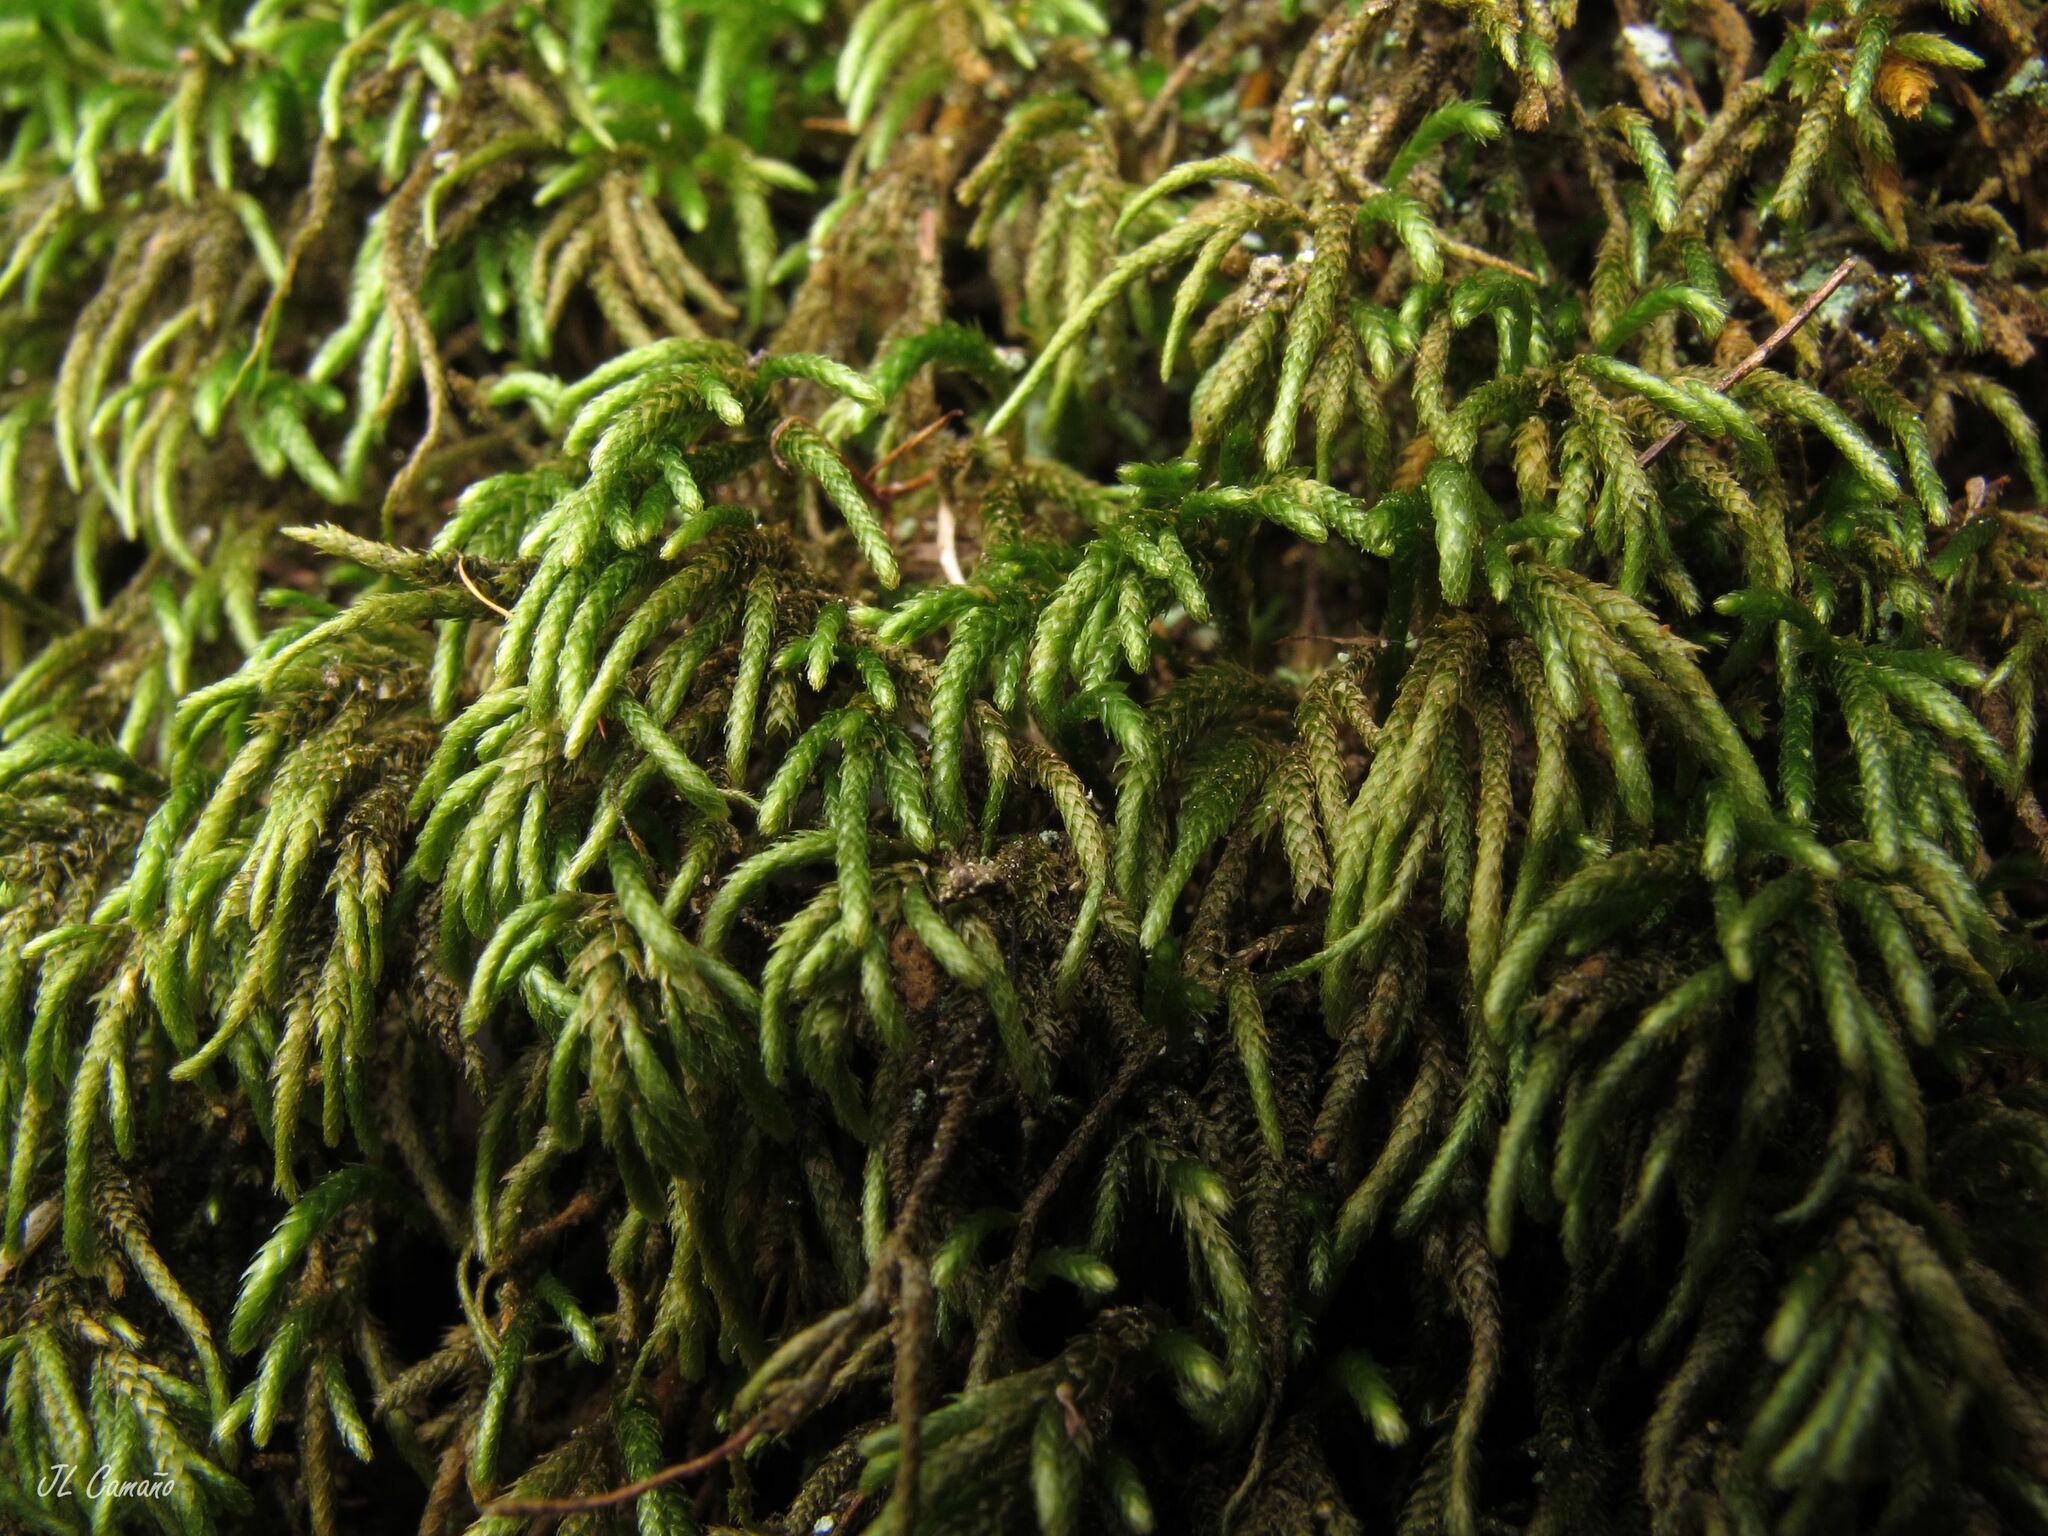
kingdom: Plantae
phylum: Bryophyta
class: Bryopsida
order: Hypnales
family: Lembophyllaceae
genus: Nogopterium
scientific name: Nogopterium gracile
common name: Bird's-foot wing-moss
